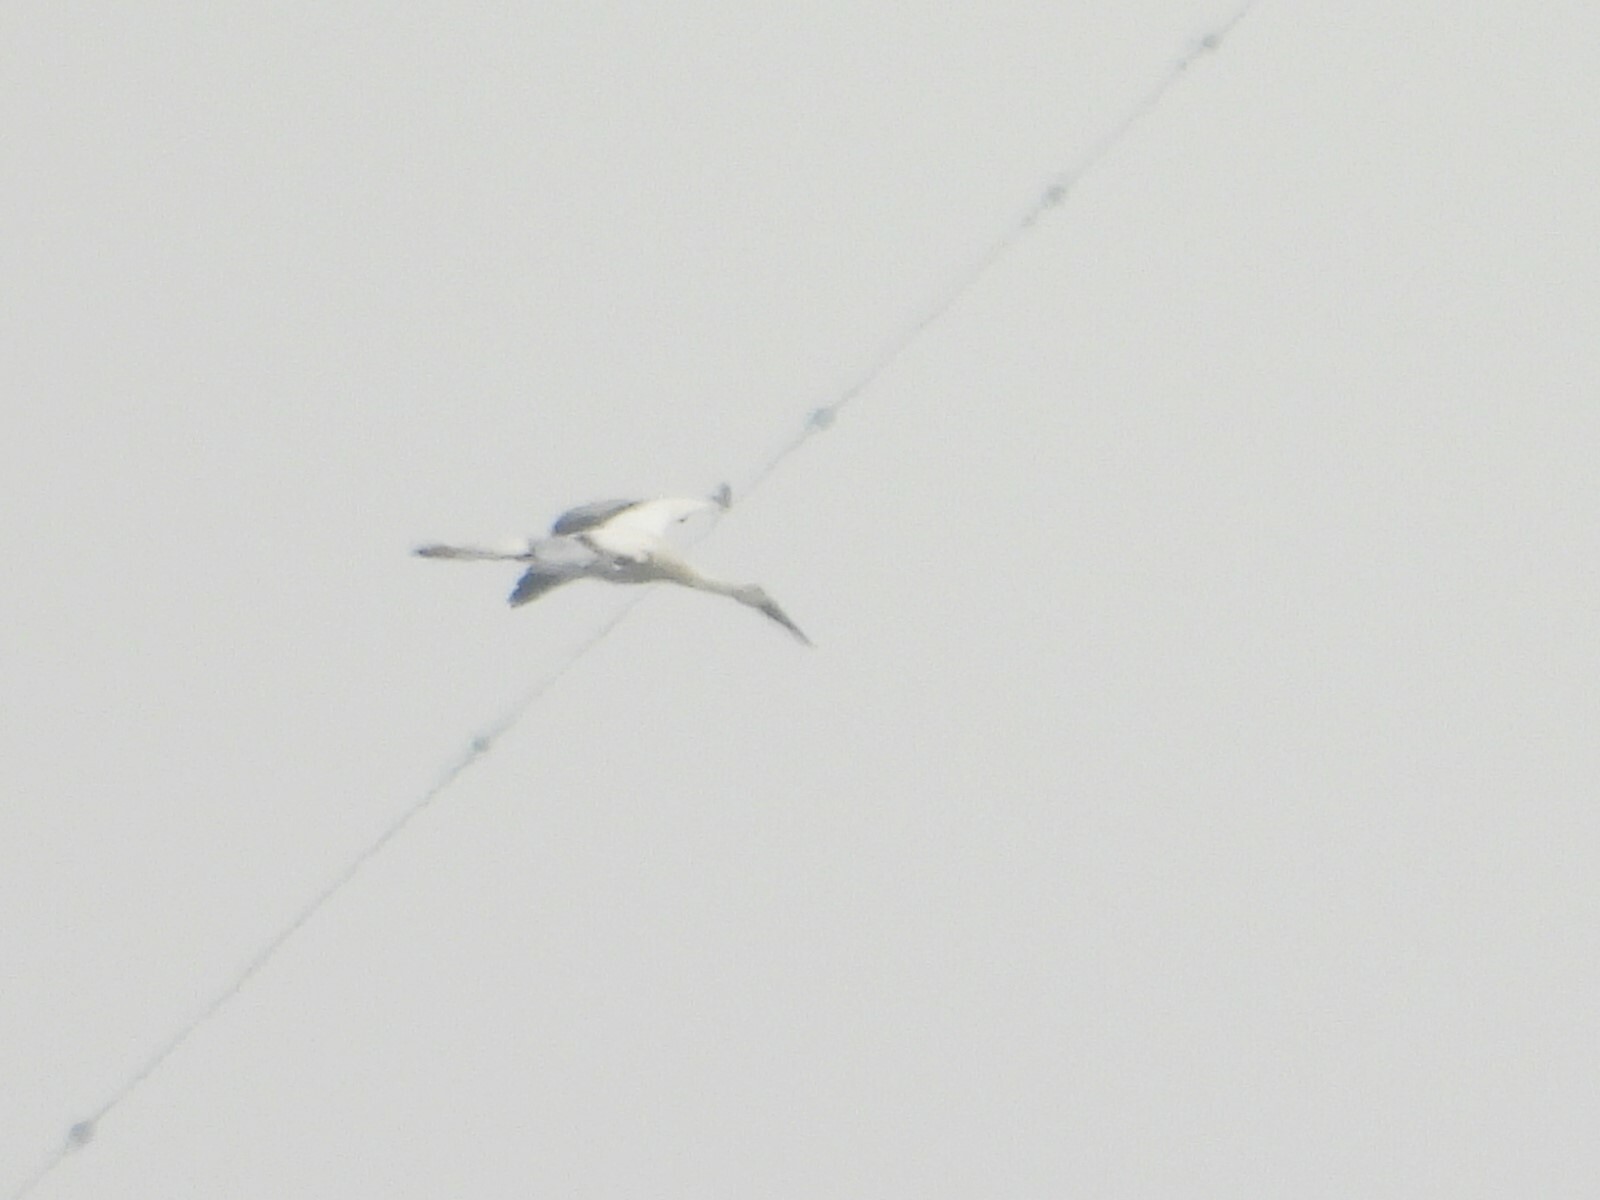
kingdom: Animalia
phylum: Chordata
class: Aves
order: Ciconiiformes
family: Ciconiidae
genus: Ciconia
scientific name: Ciconia boyciana
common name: Oriental stork
